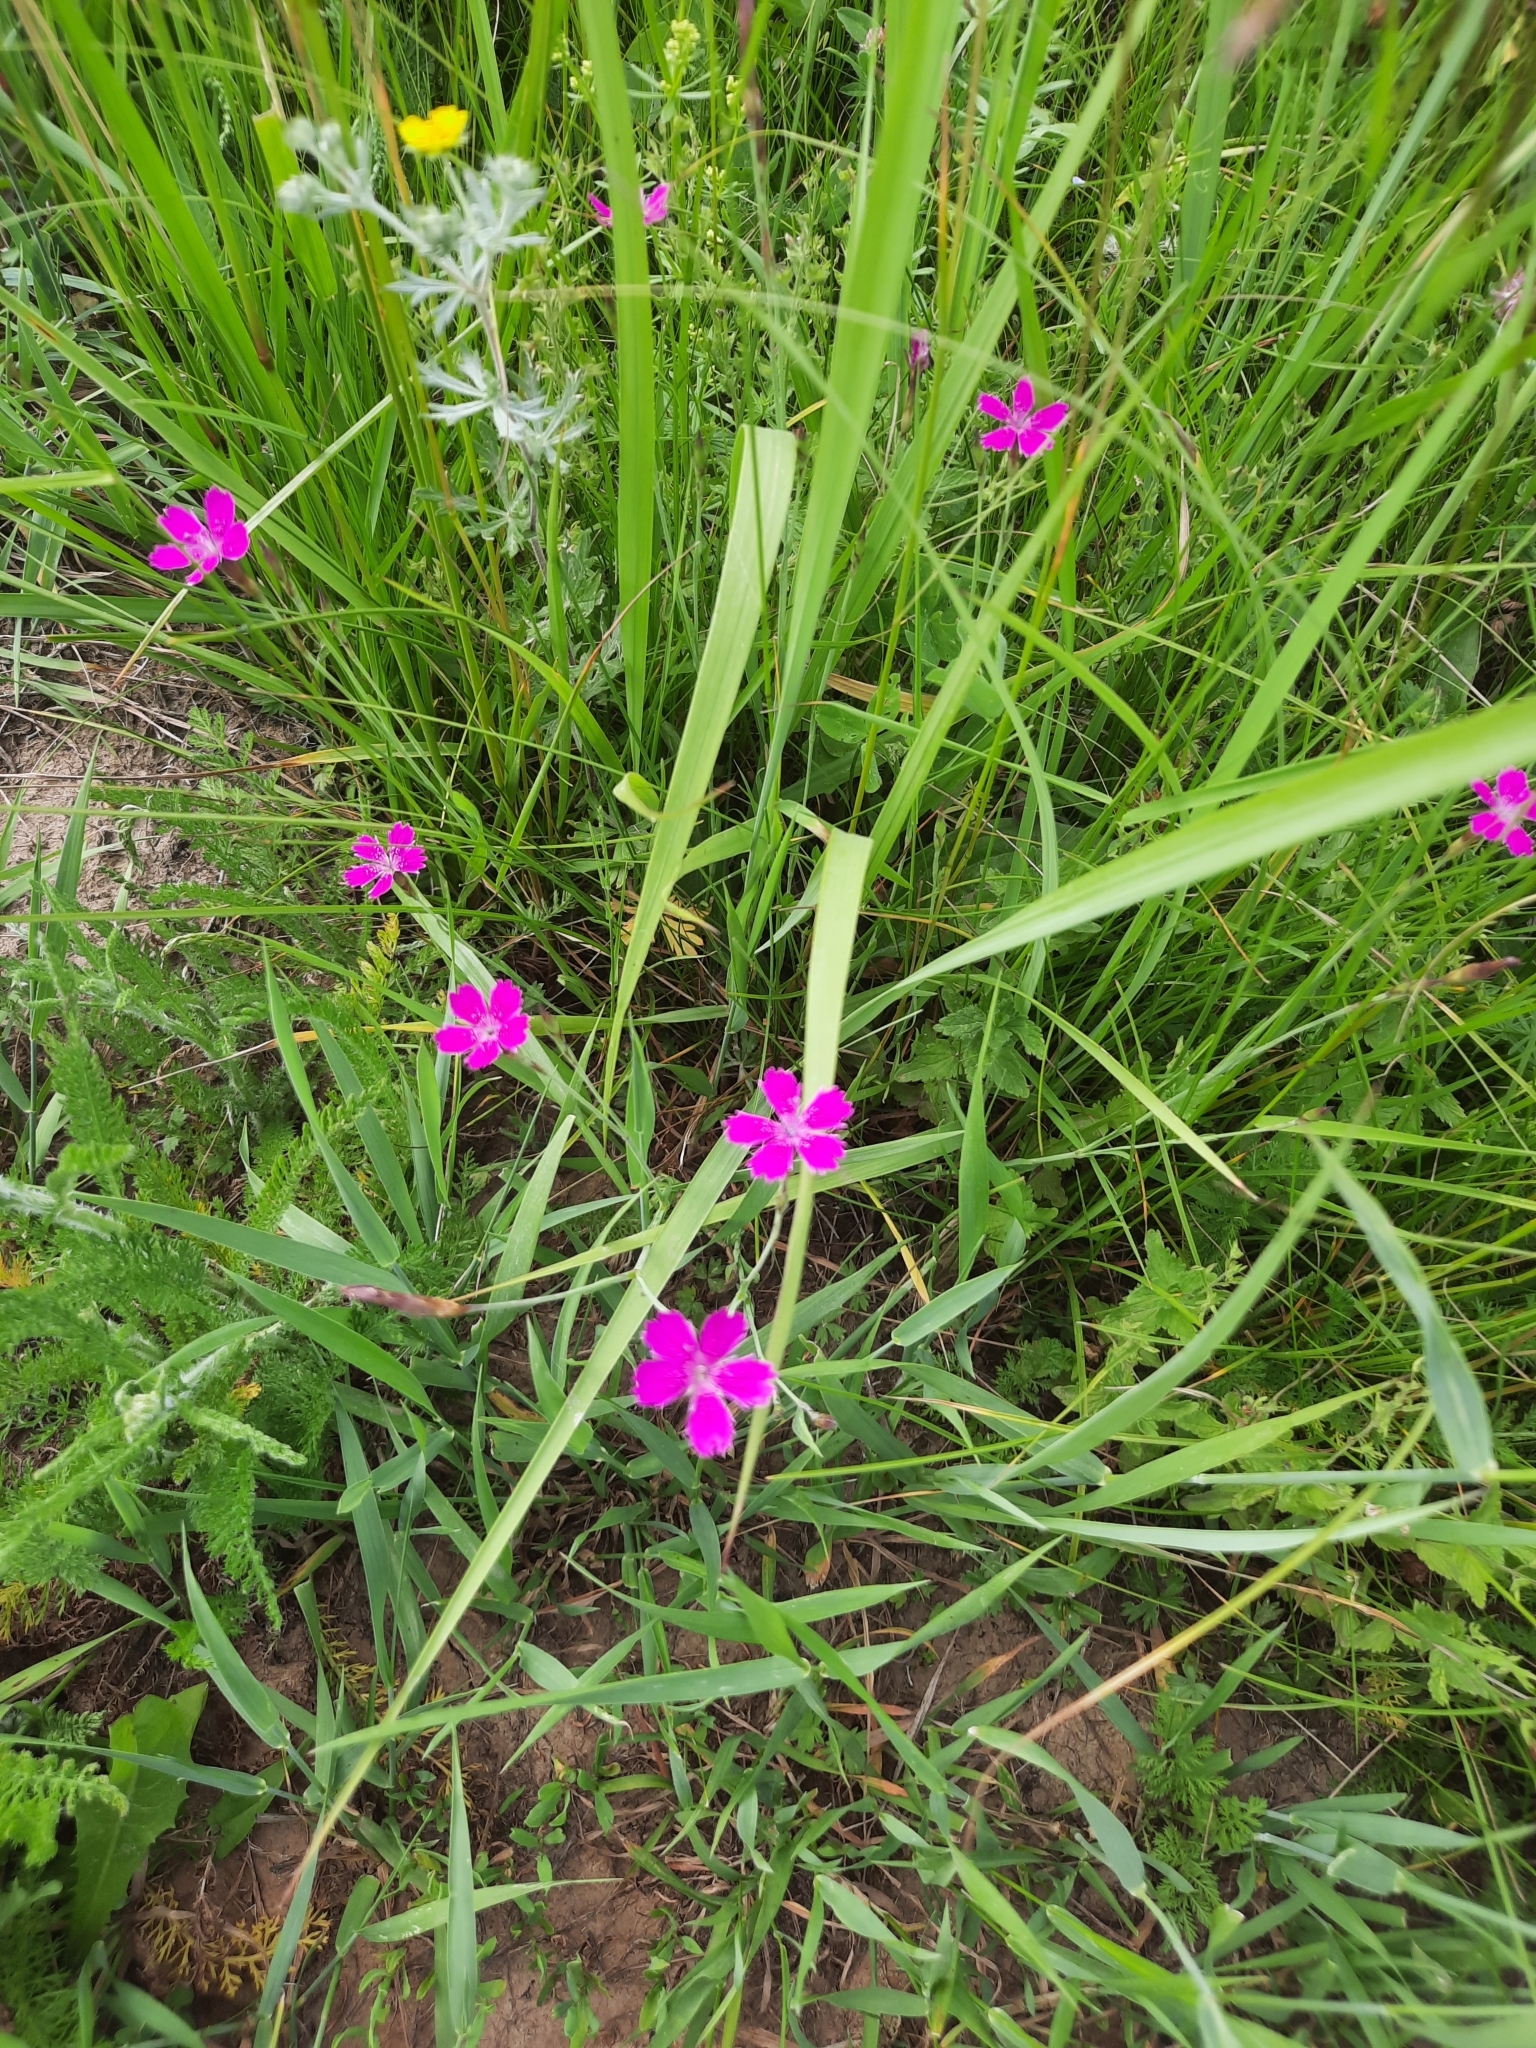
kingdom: Plantae
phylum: Tracheophyta
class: Magnoliopsida
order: Caryophyllales
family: Caryophyllaceae
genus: Dianthus
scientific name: Dianthus deltoides
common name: Maiden pink
